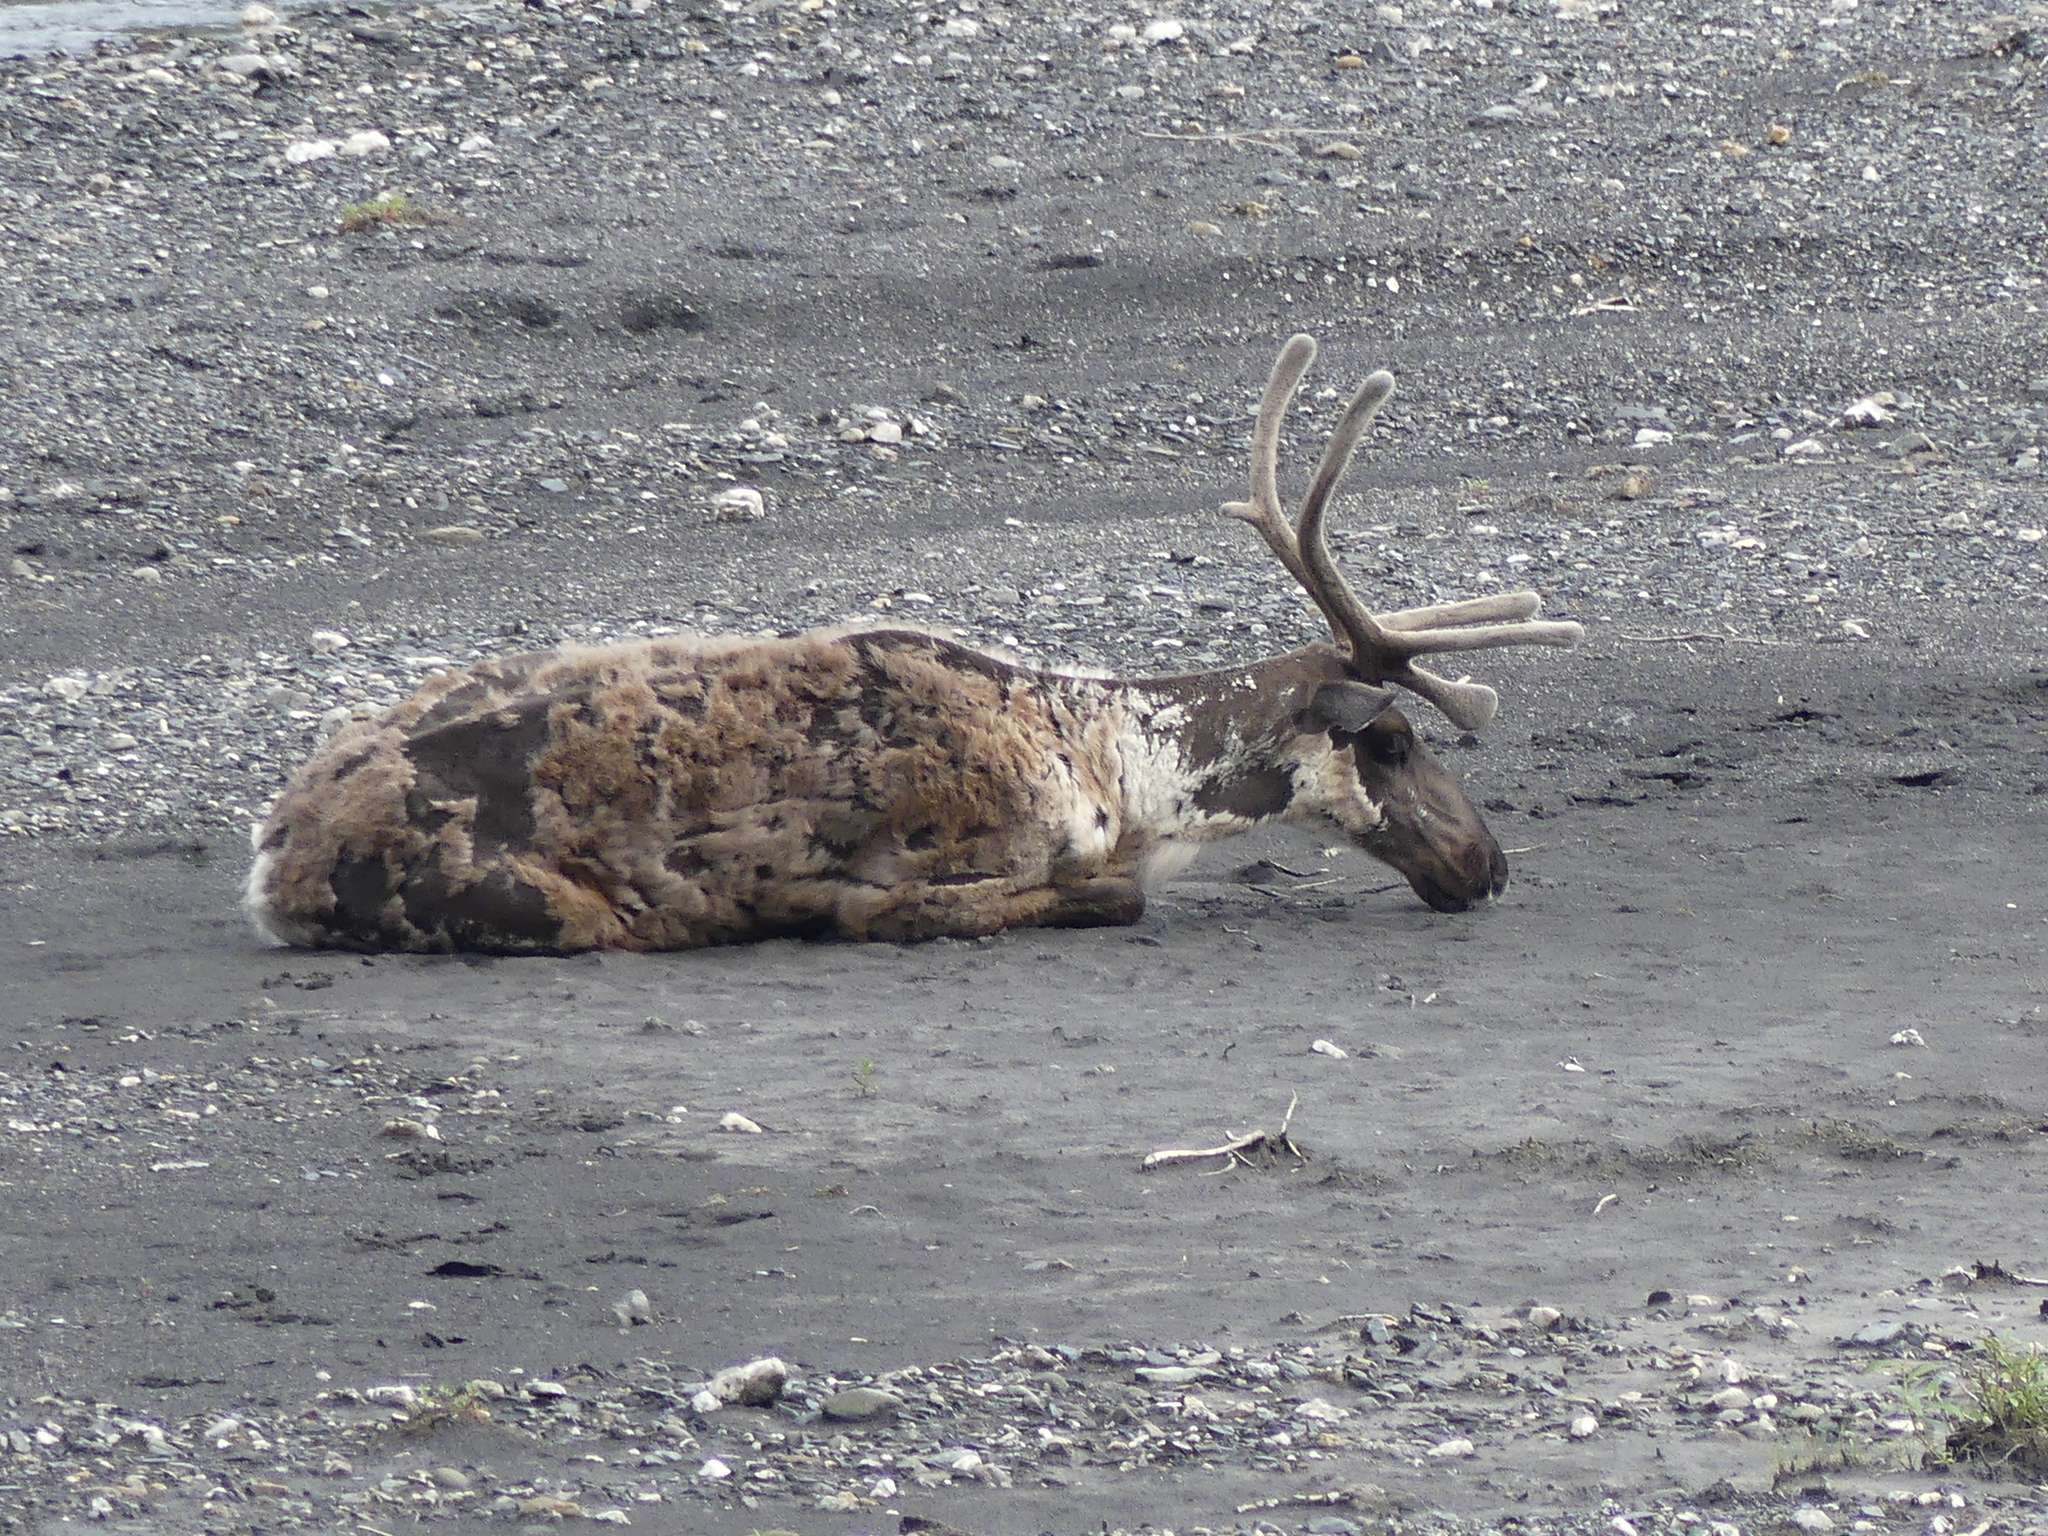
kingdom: Animalia
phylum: Chordata
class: Mammalia
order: Artiodactyla
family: Cervidae
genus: Rangifer
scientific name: Rangifer tarandus
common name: Reindeer
